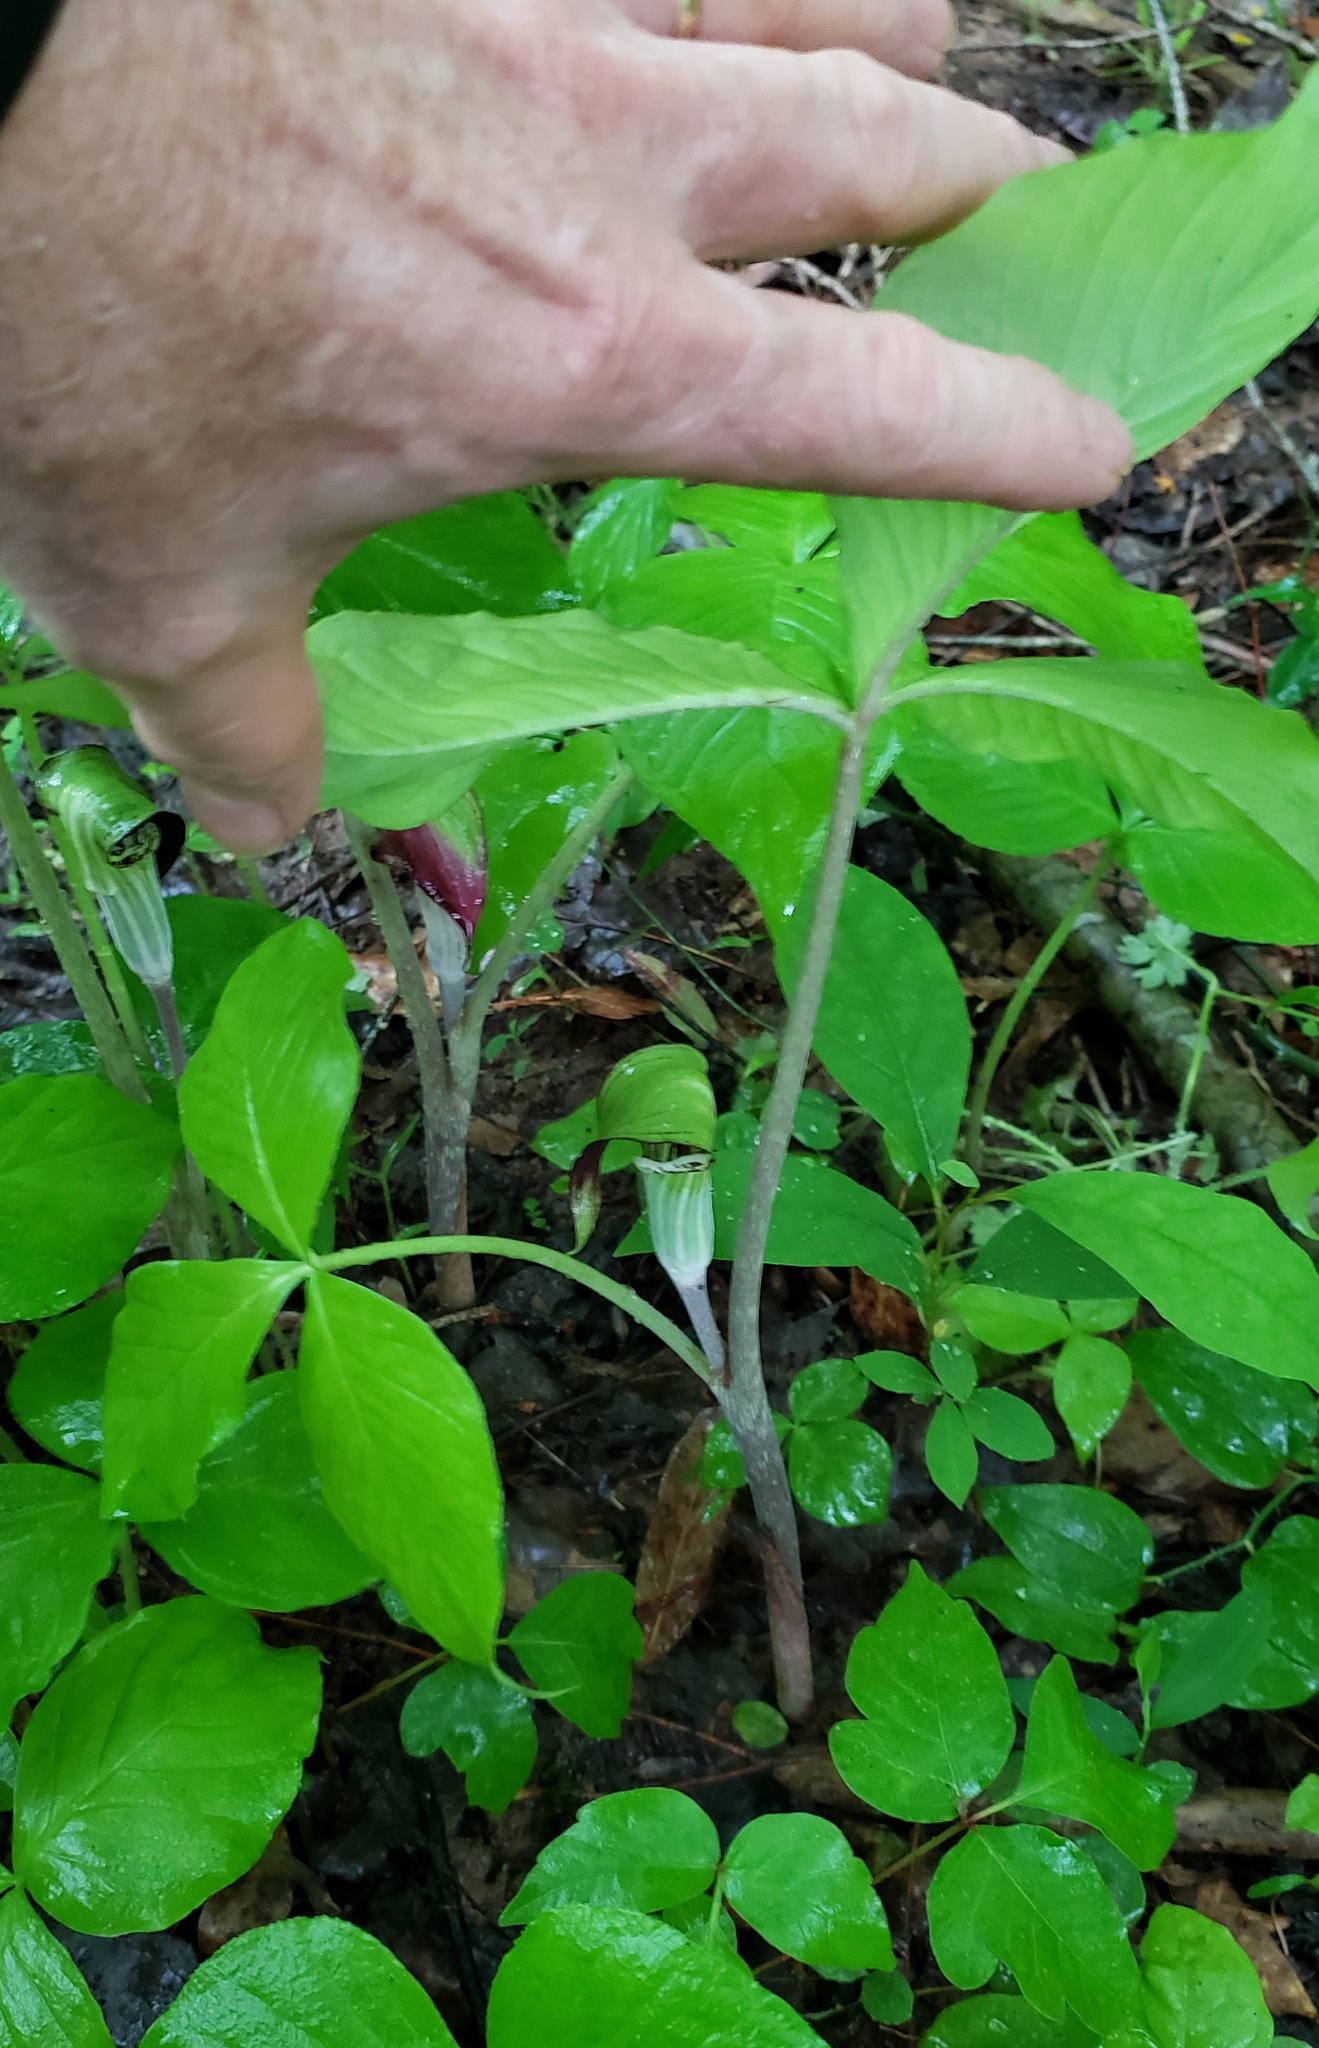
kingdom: Plantae
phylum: Tracheophyta
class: Liliopsida
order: Alismatales
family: Araceae
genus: Arisaema
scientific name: Arisaema triphyllum
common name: Jack-in-the-pulpit
